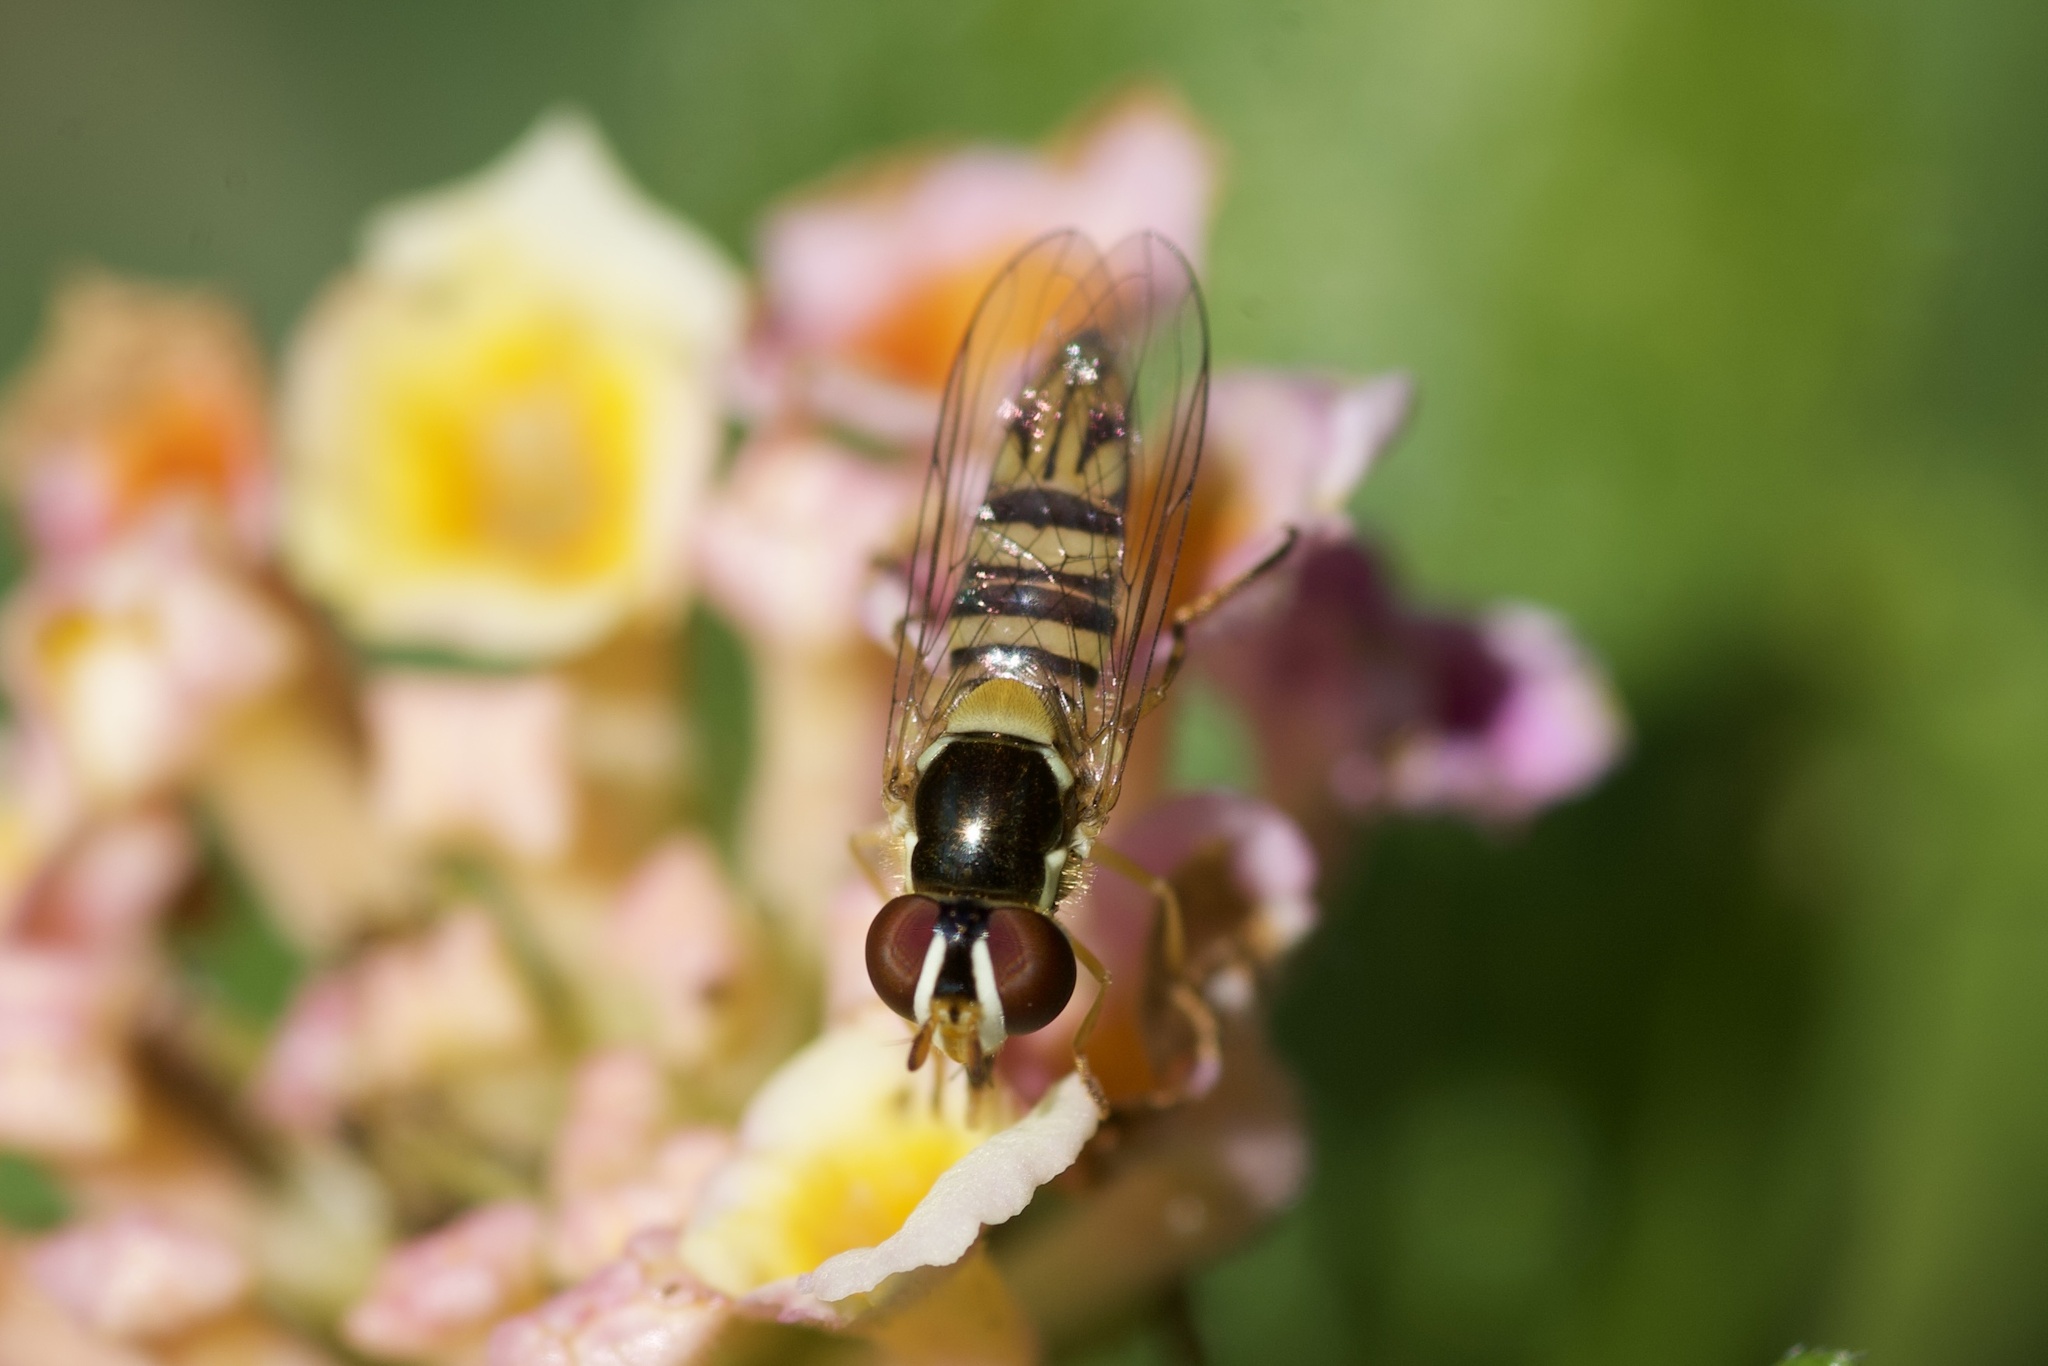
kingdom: Animalia
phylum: Arthropoda
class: Insecta
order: Diptera
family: Syrphidae
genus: Allograpta
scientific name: Allograpta obliqua
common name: Common oblique syrphid
